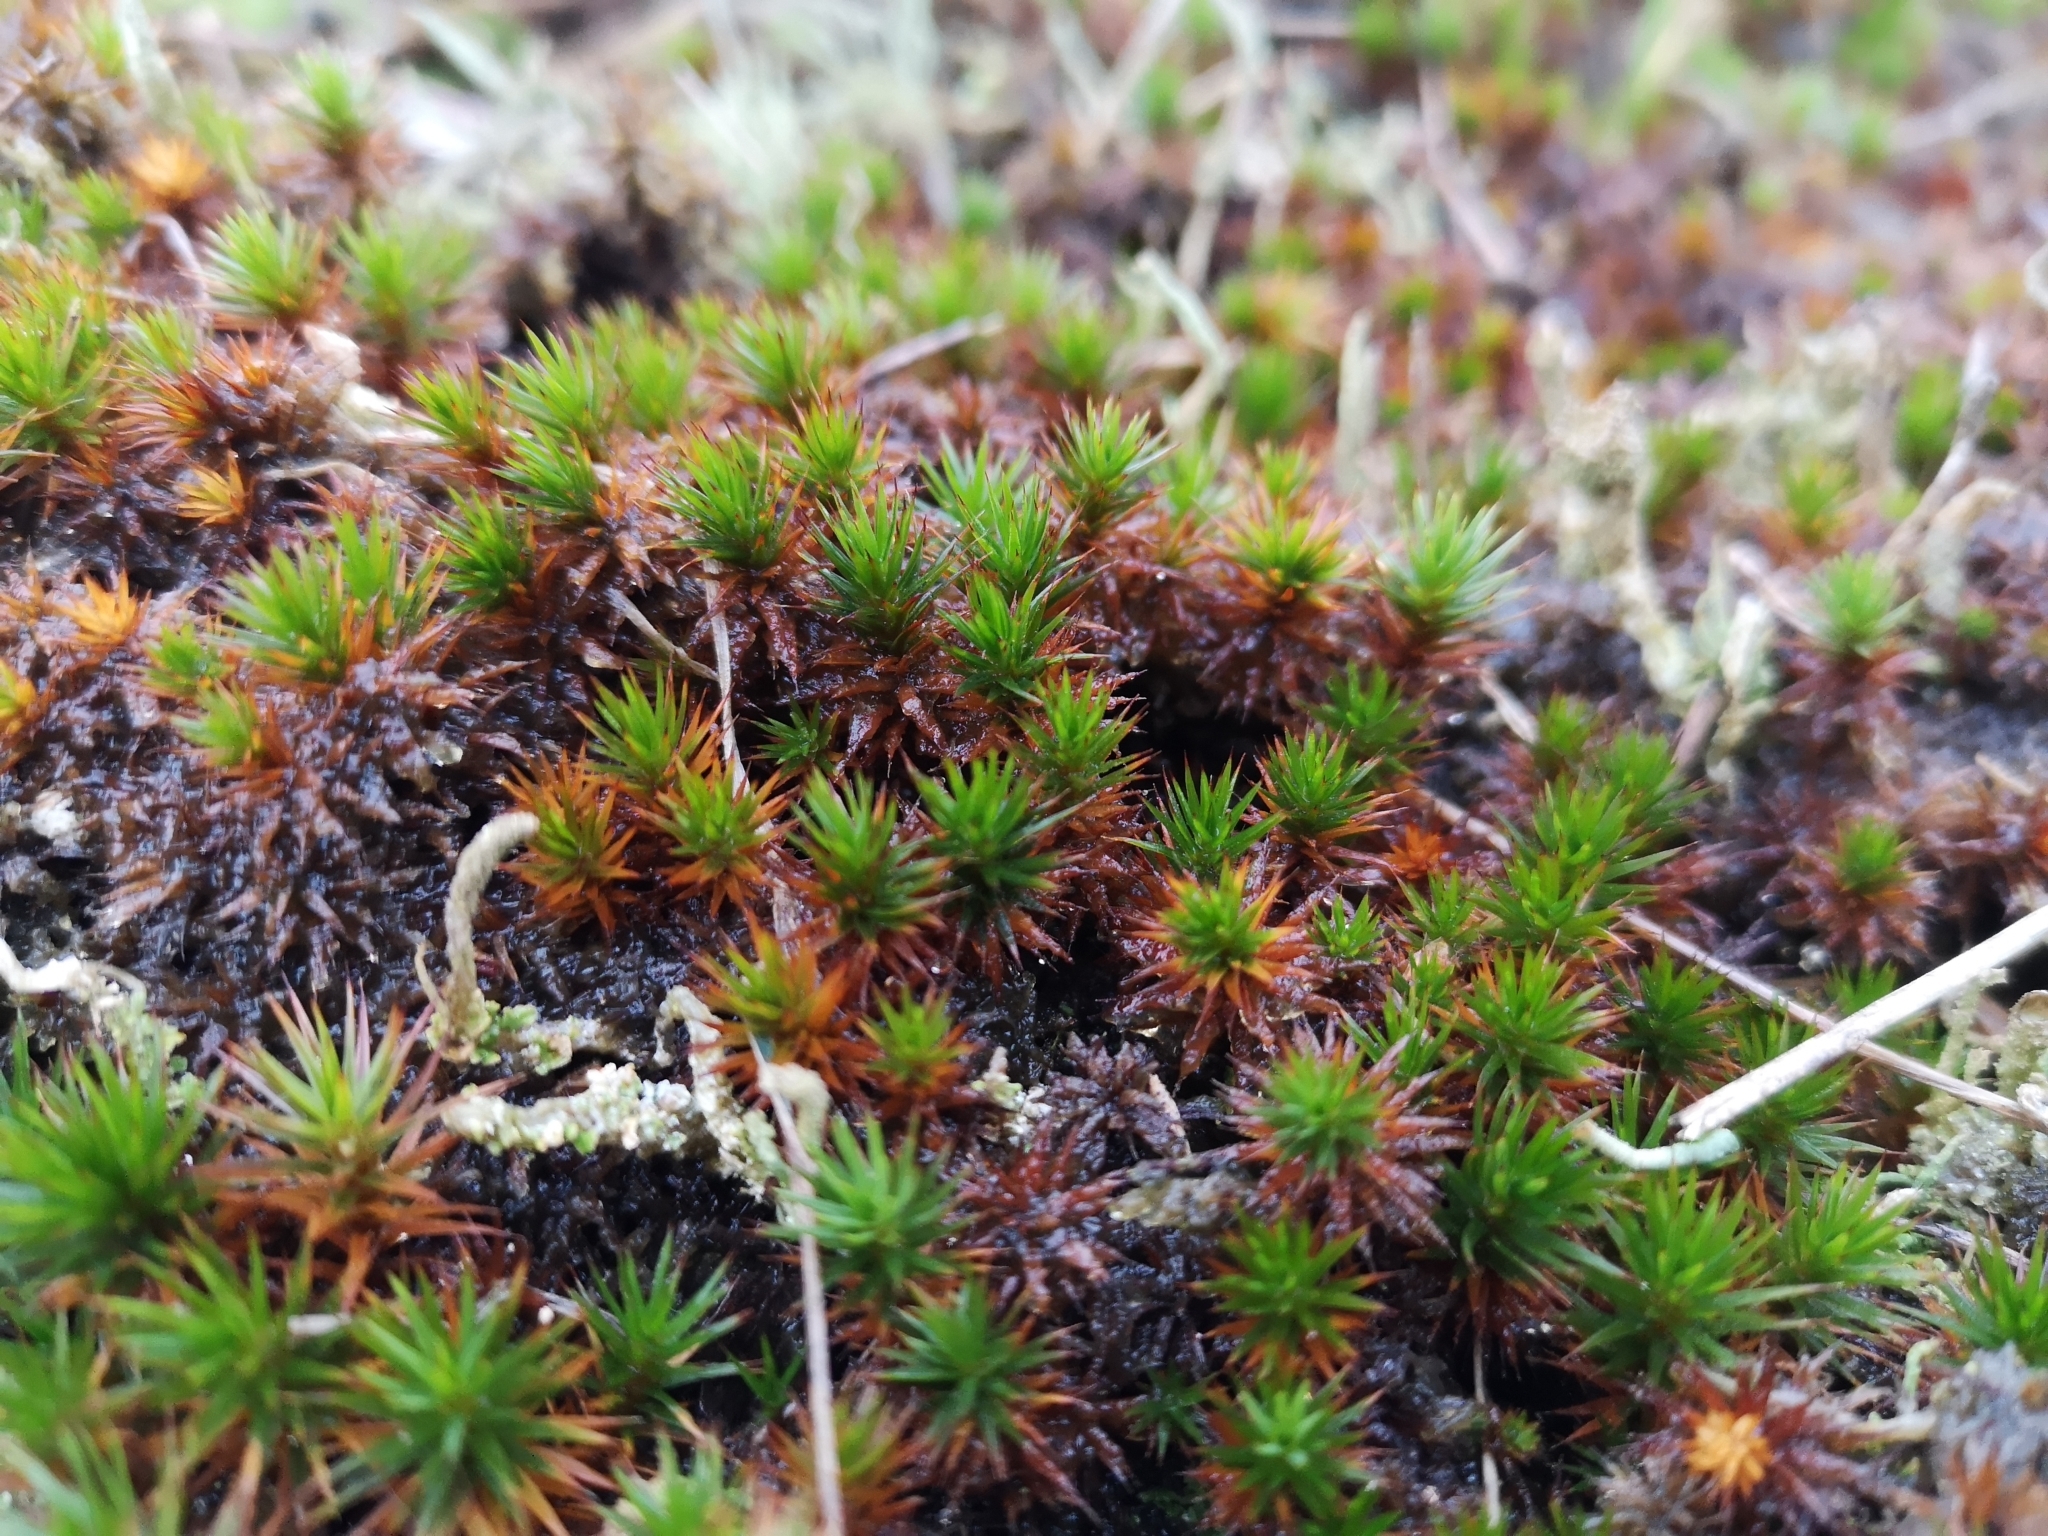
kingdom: Plantae
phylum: Bryophyta
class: Polytrichopsida
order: Polytrichales
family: Polytrichaceae
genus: Polytrichum
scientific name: Polytrichum juniperinum
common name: Juniper haircap moss
